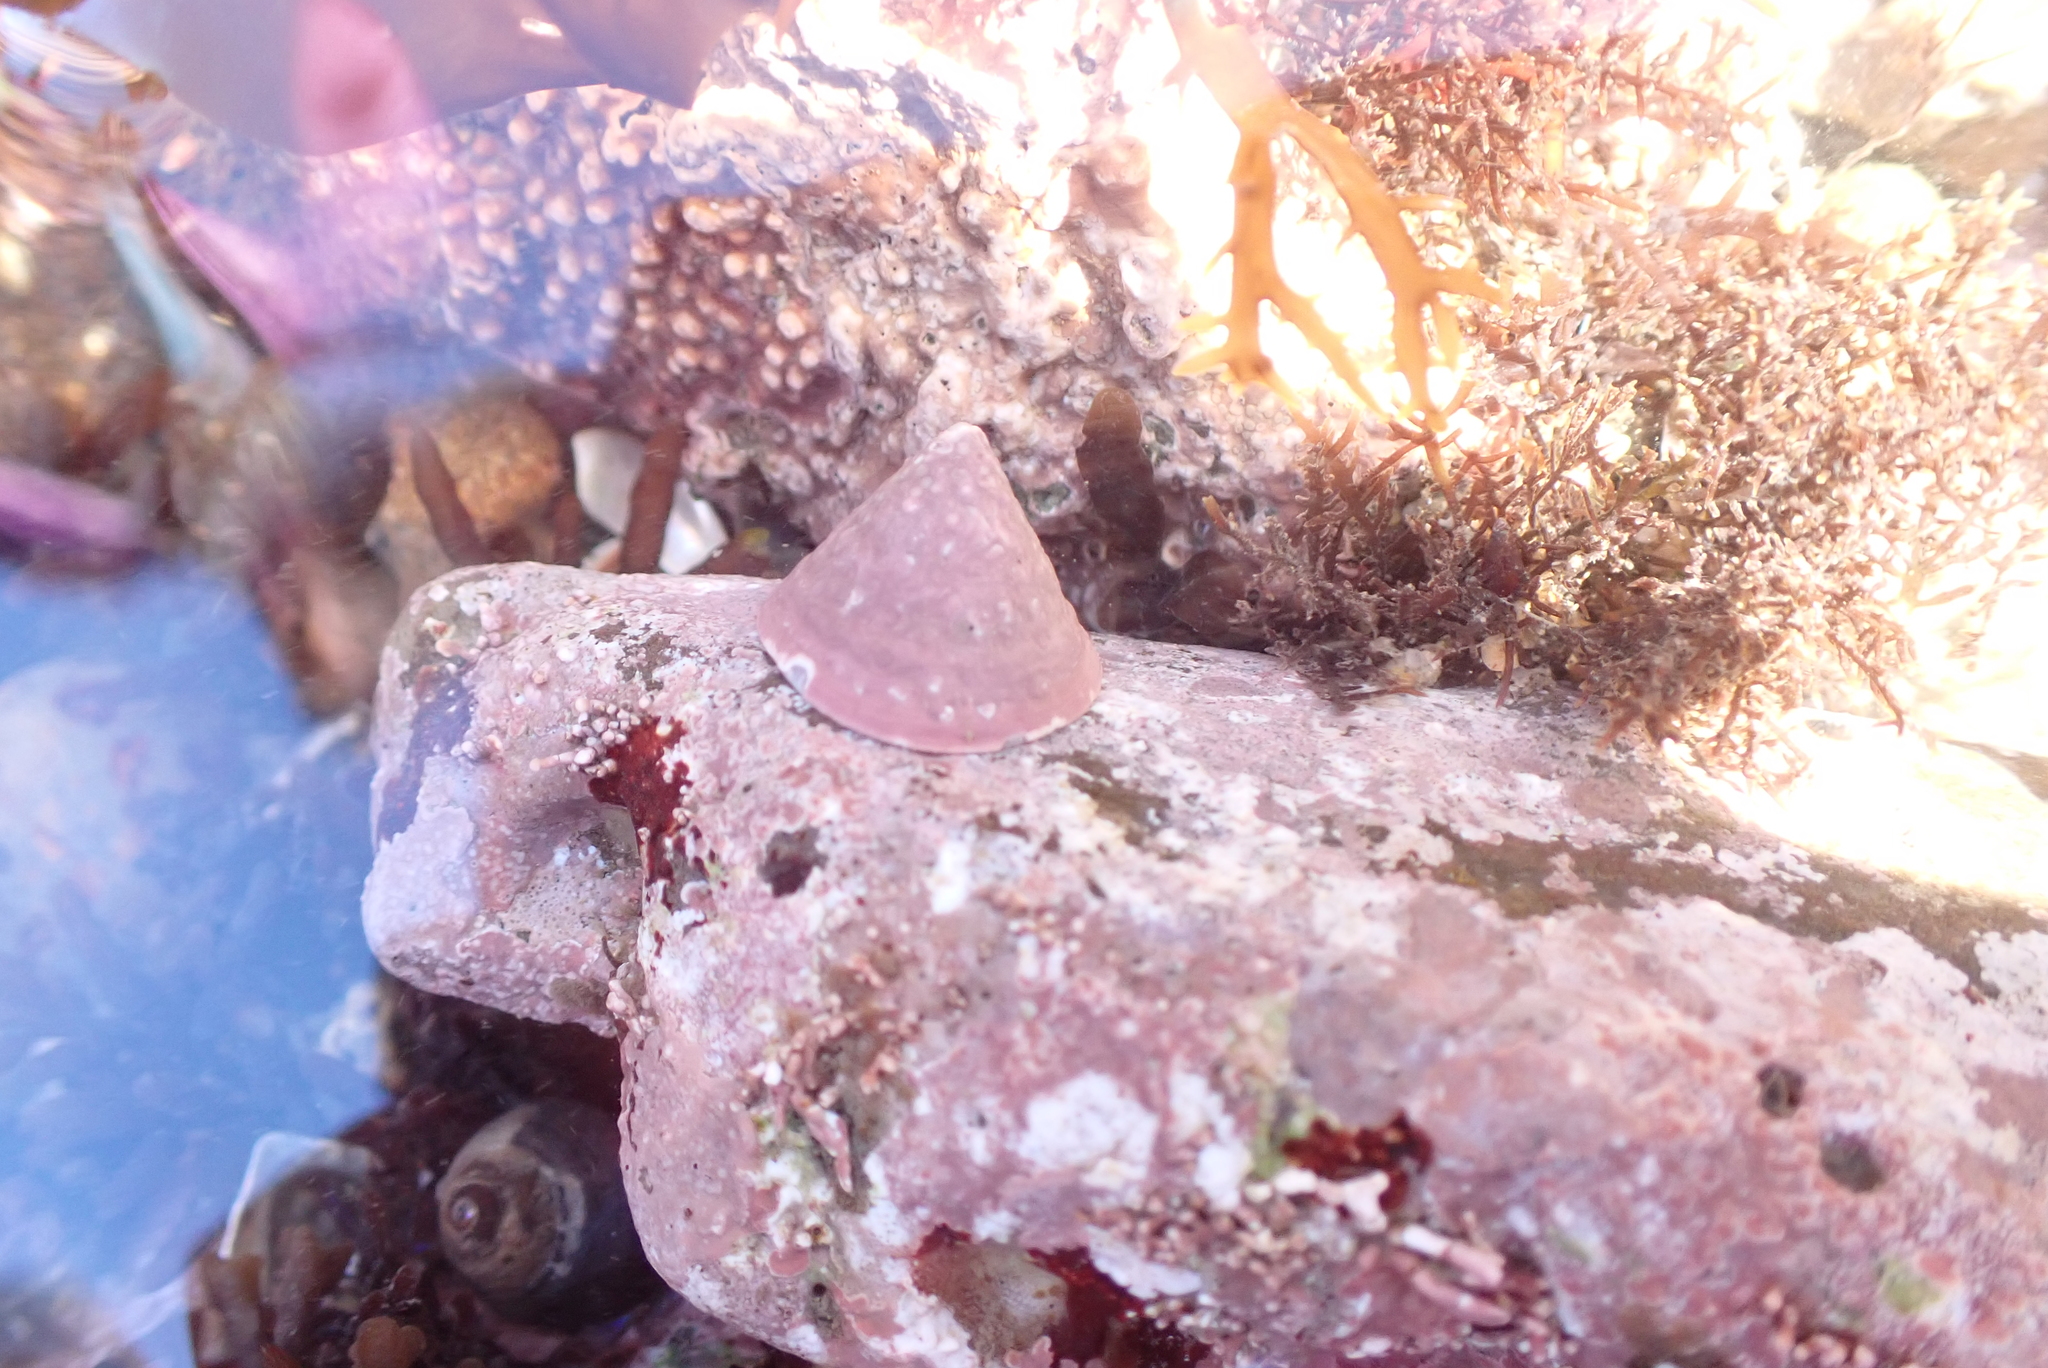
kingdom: Animalia
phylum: Mollusca
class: Gastropoda
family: Acmaeidae
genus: Acmaea
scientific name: Acmaea mitra
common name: Pacific white cap limpet
